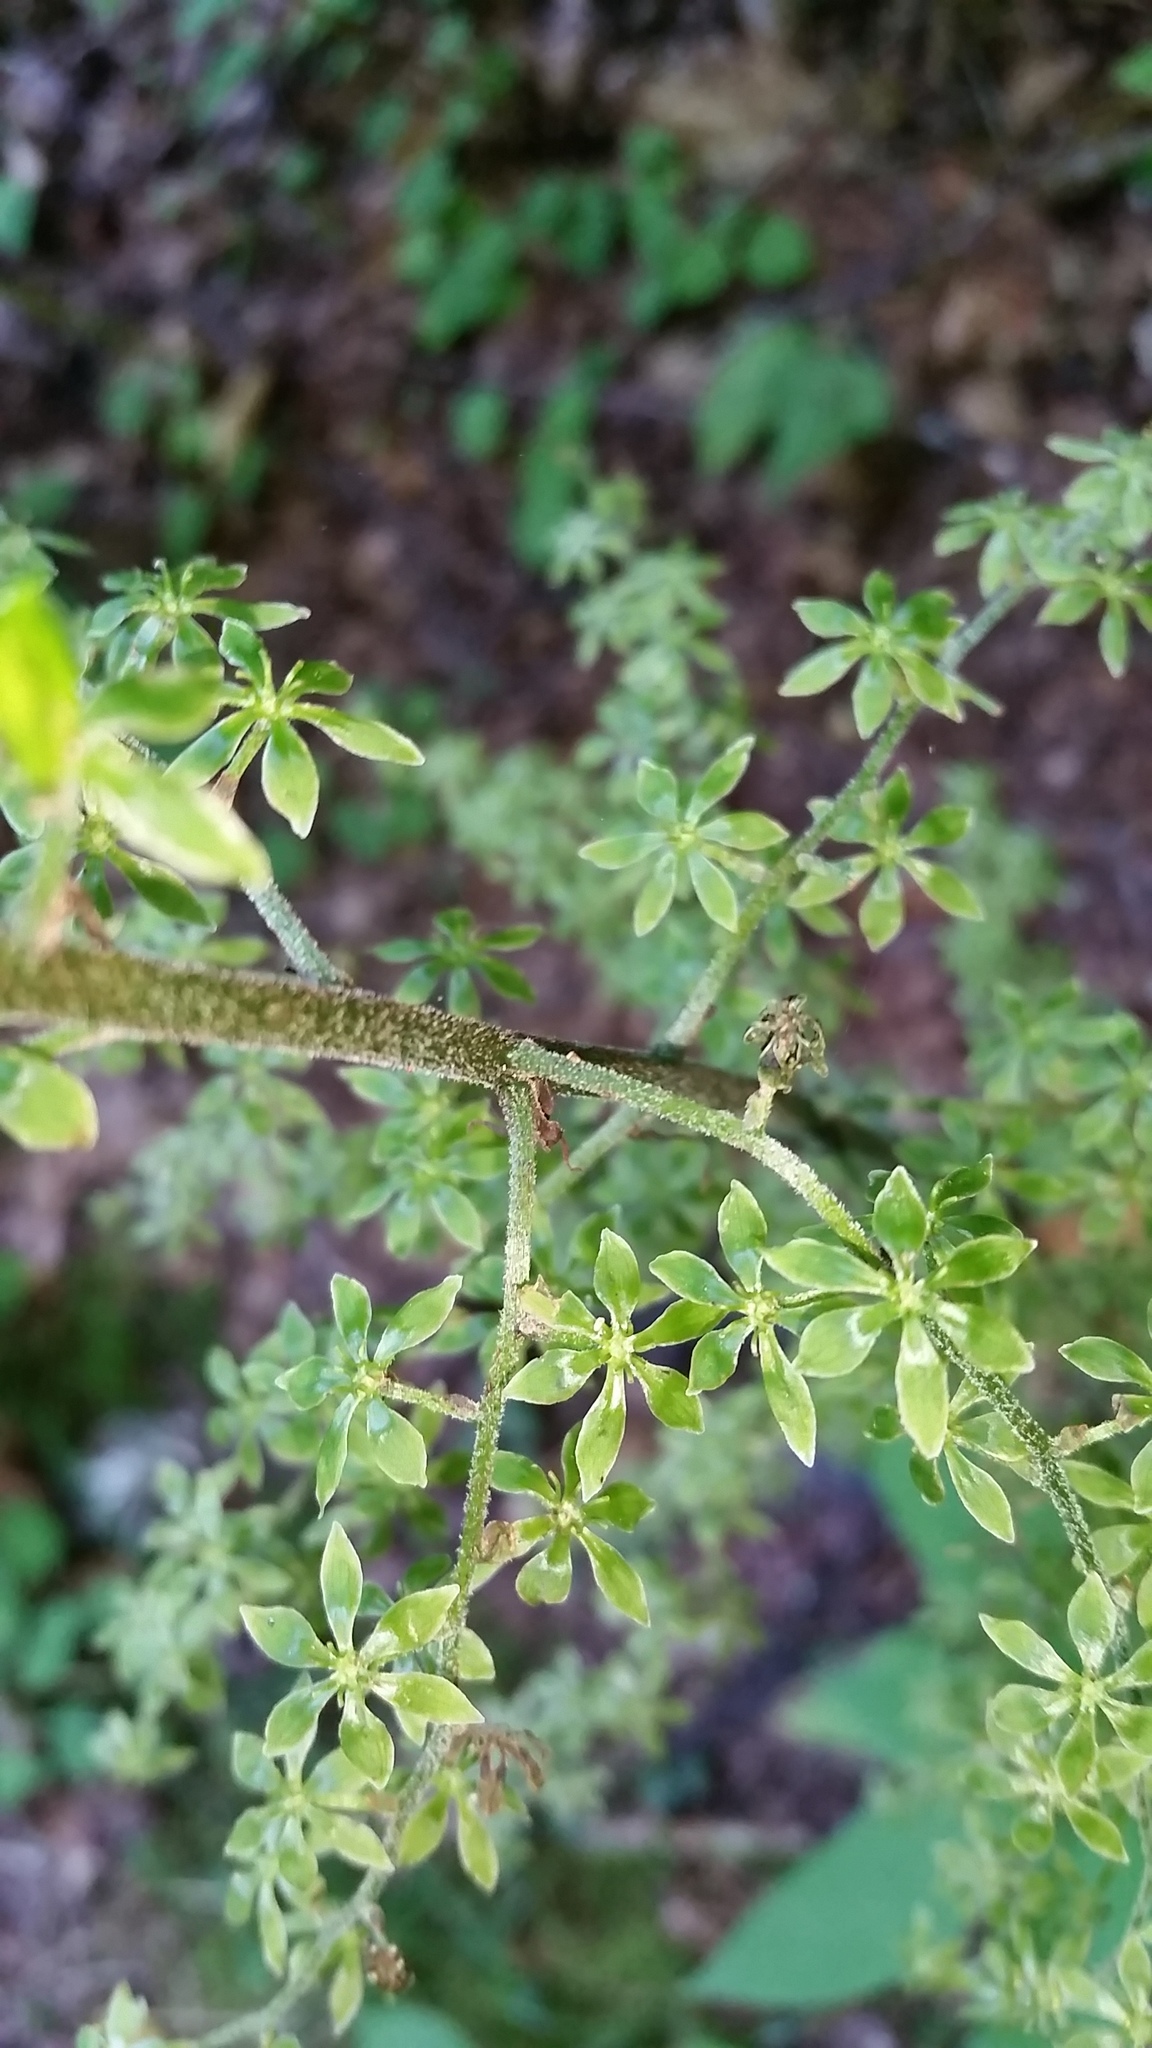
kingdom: Plantae
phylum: Tracheophyta
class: Liliopsida
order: Liliales
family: Melanthiaceae
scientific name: Melanthiaceae
